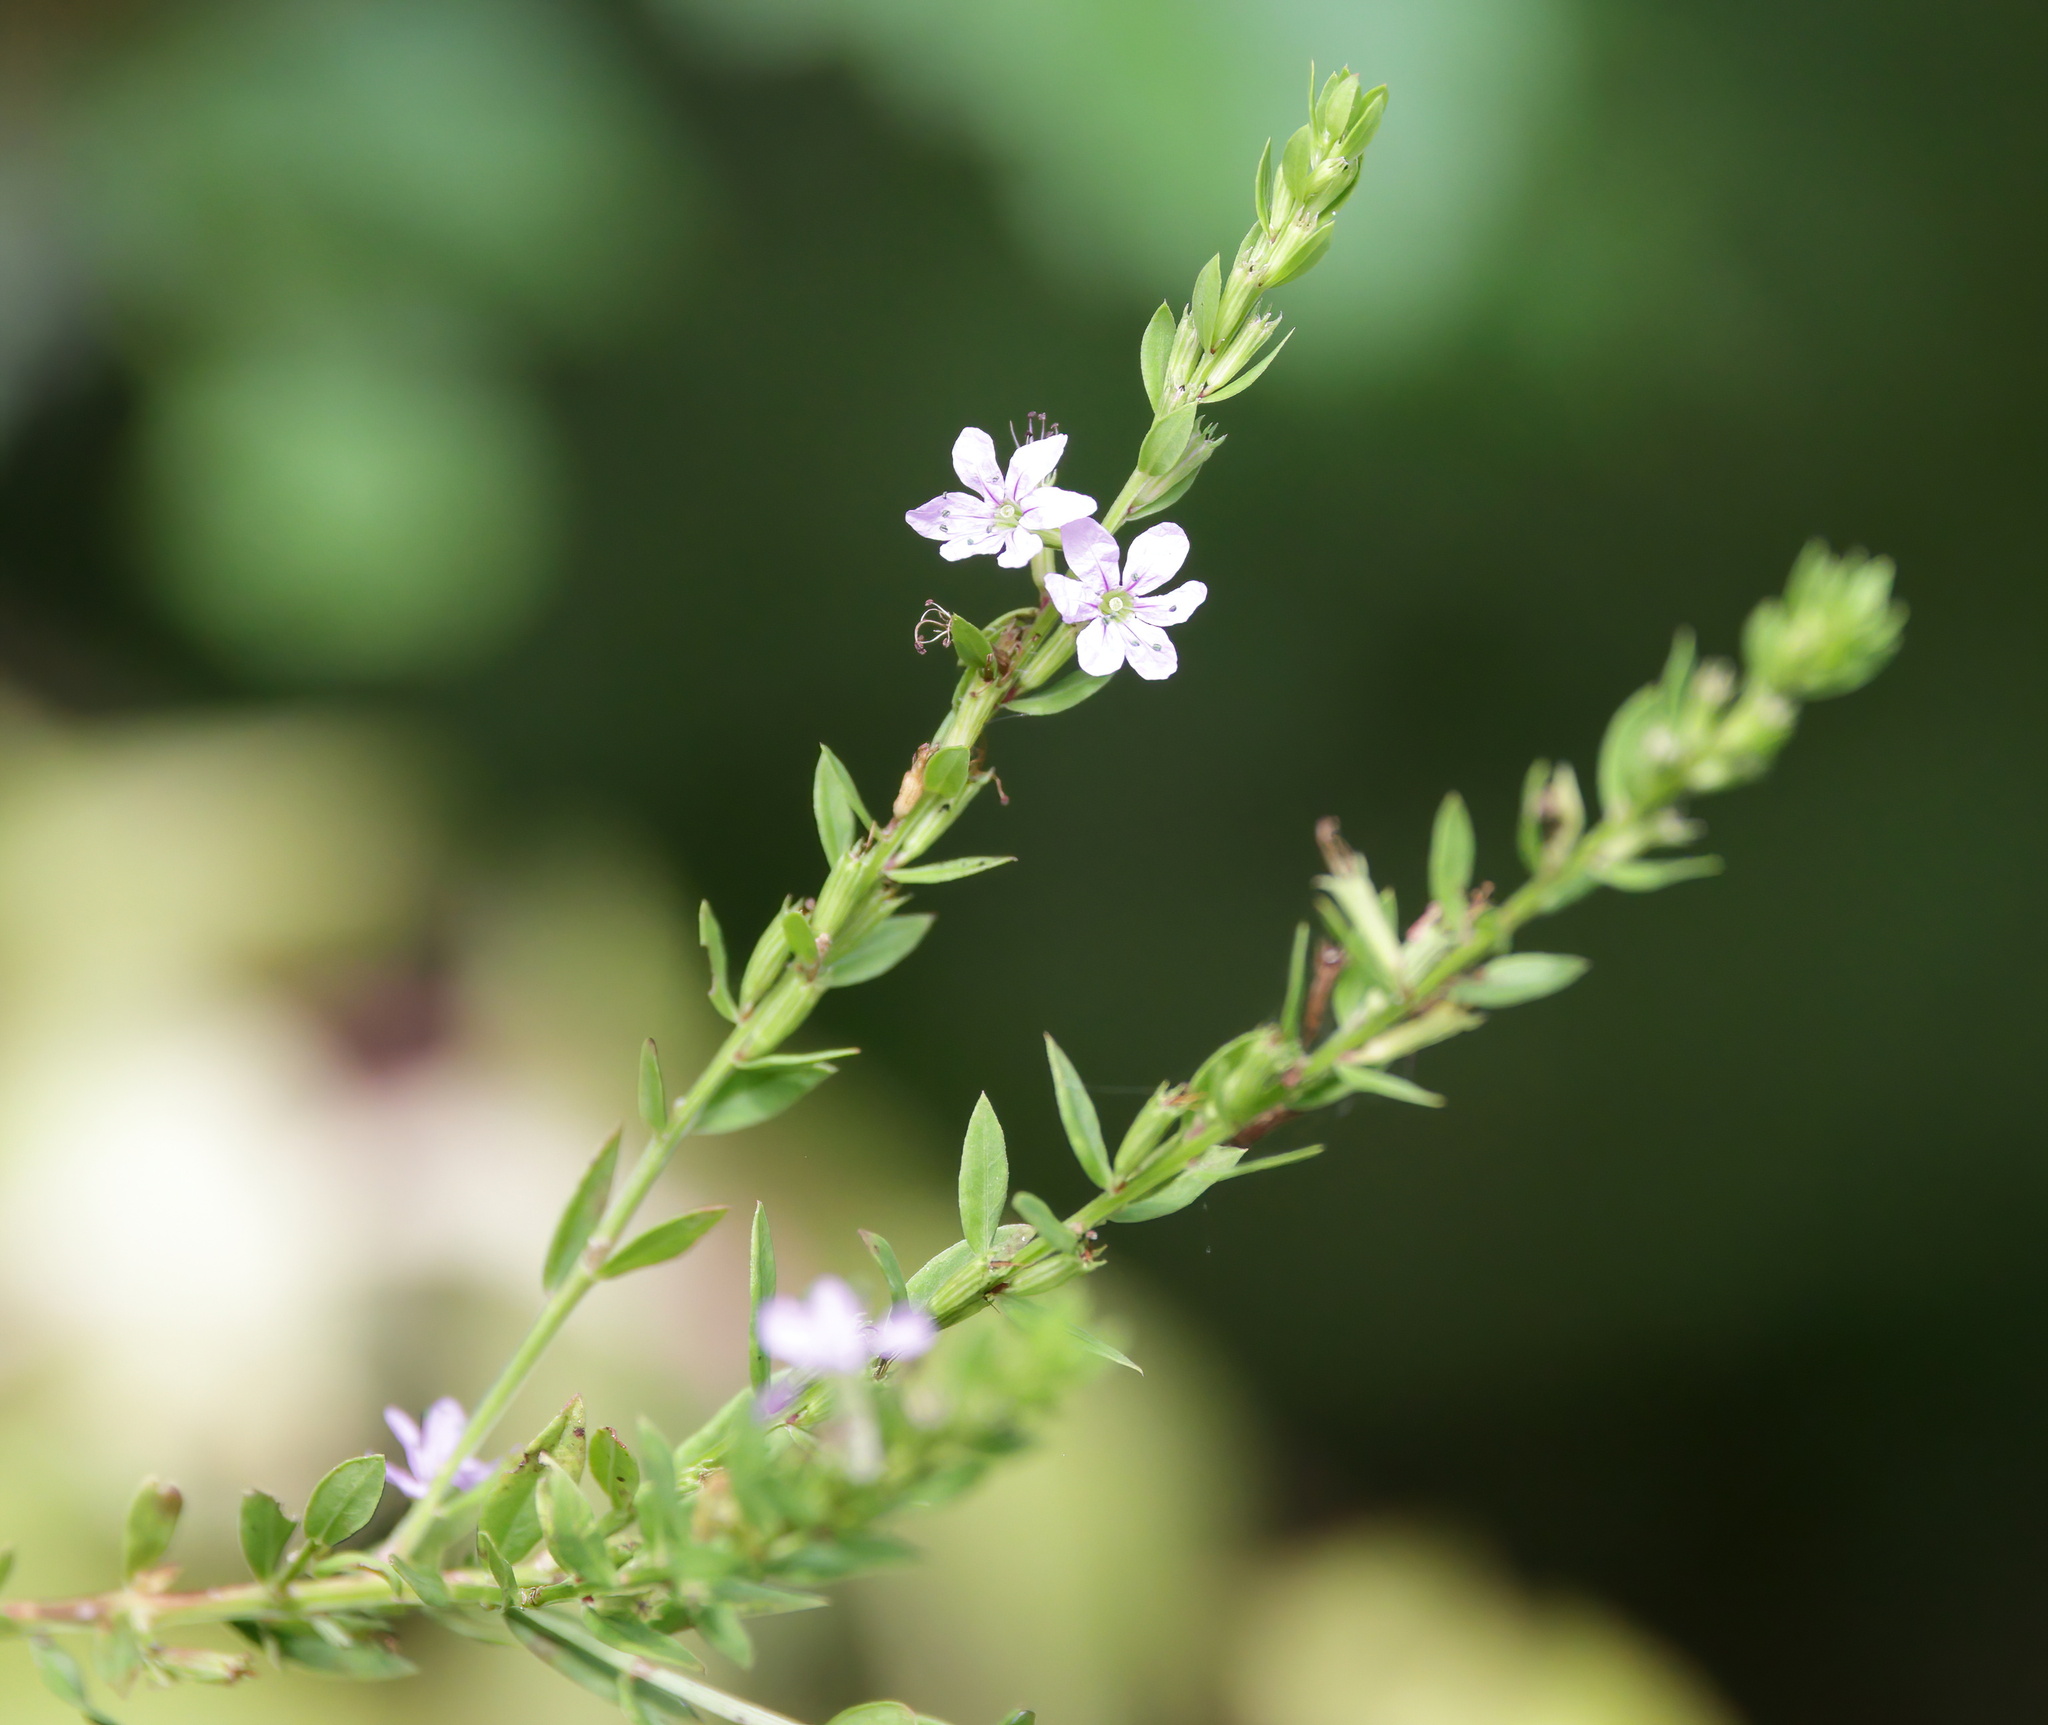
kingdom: Plantae
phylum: Tracheophyta
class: Magnoliopsida
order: Myrtales
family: Lythraceae
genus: Lythrum
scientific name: Lythrum alatum
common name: Winged loosestrife
